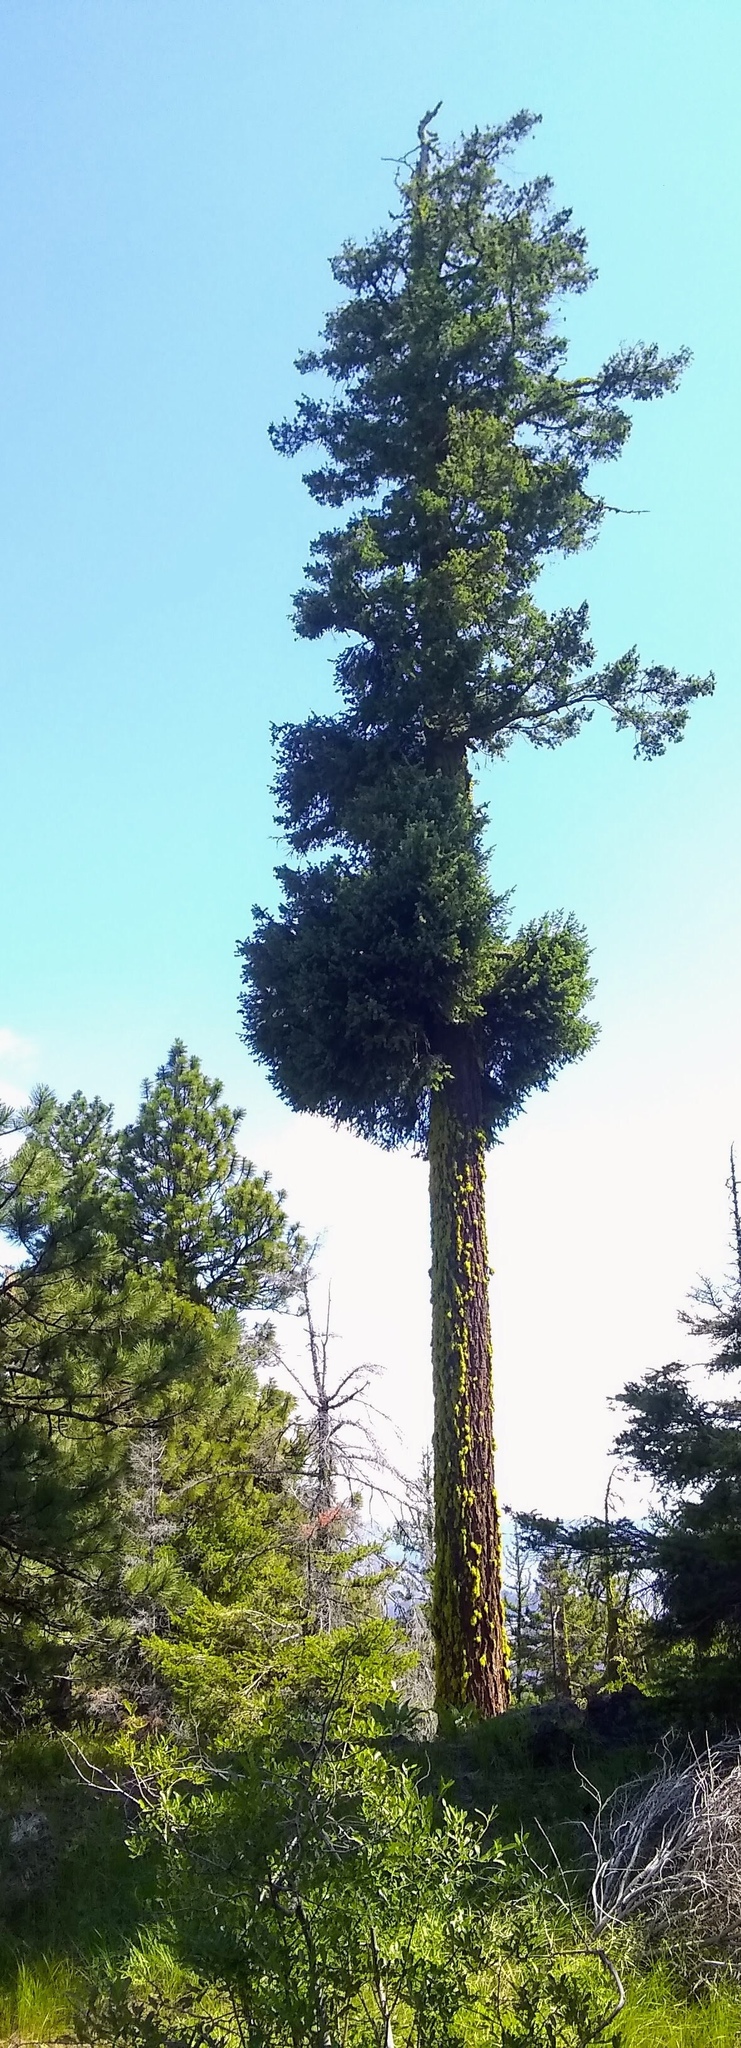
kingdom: Plantae
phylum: Tracheophyta
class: Pinopsida
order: Pinales
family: Pinaceae
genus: Pseudotsuga
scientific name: Pseudotsuga menziesii
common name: Douglas fir
